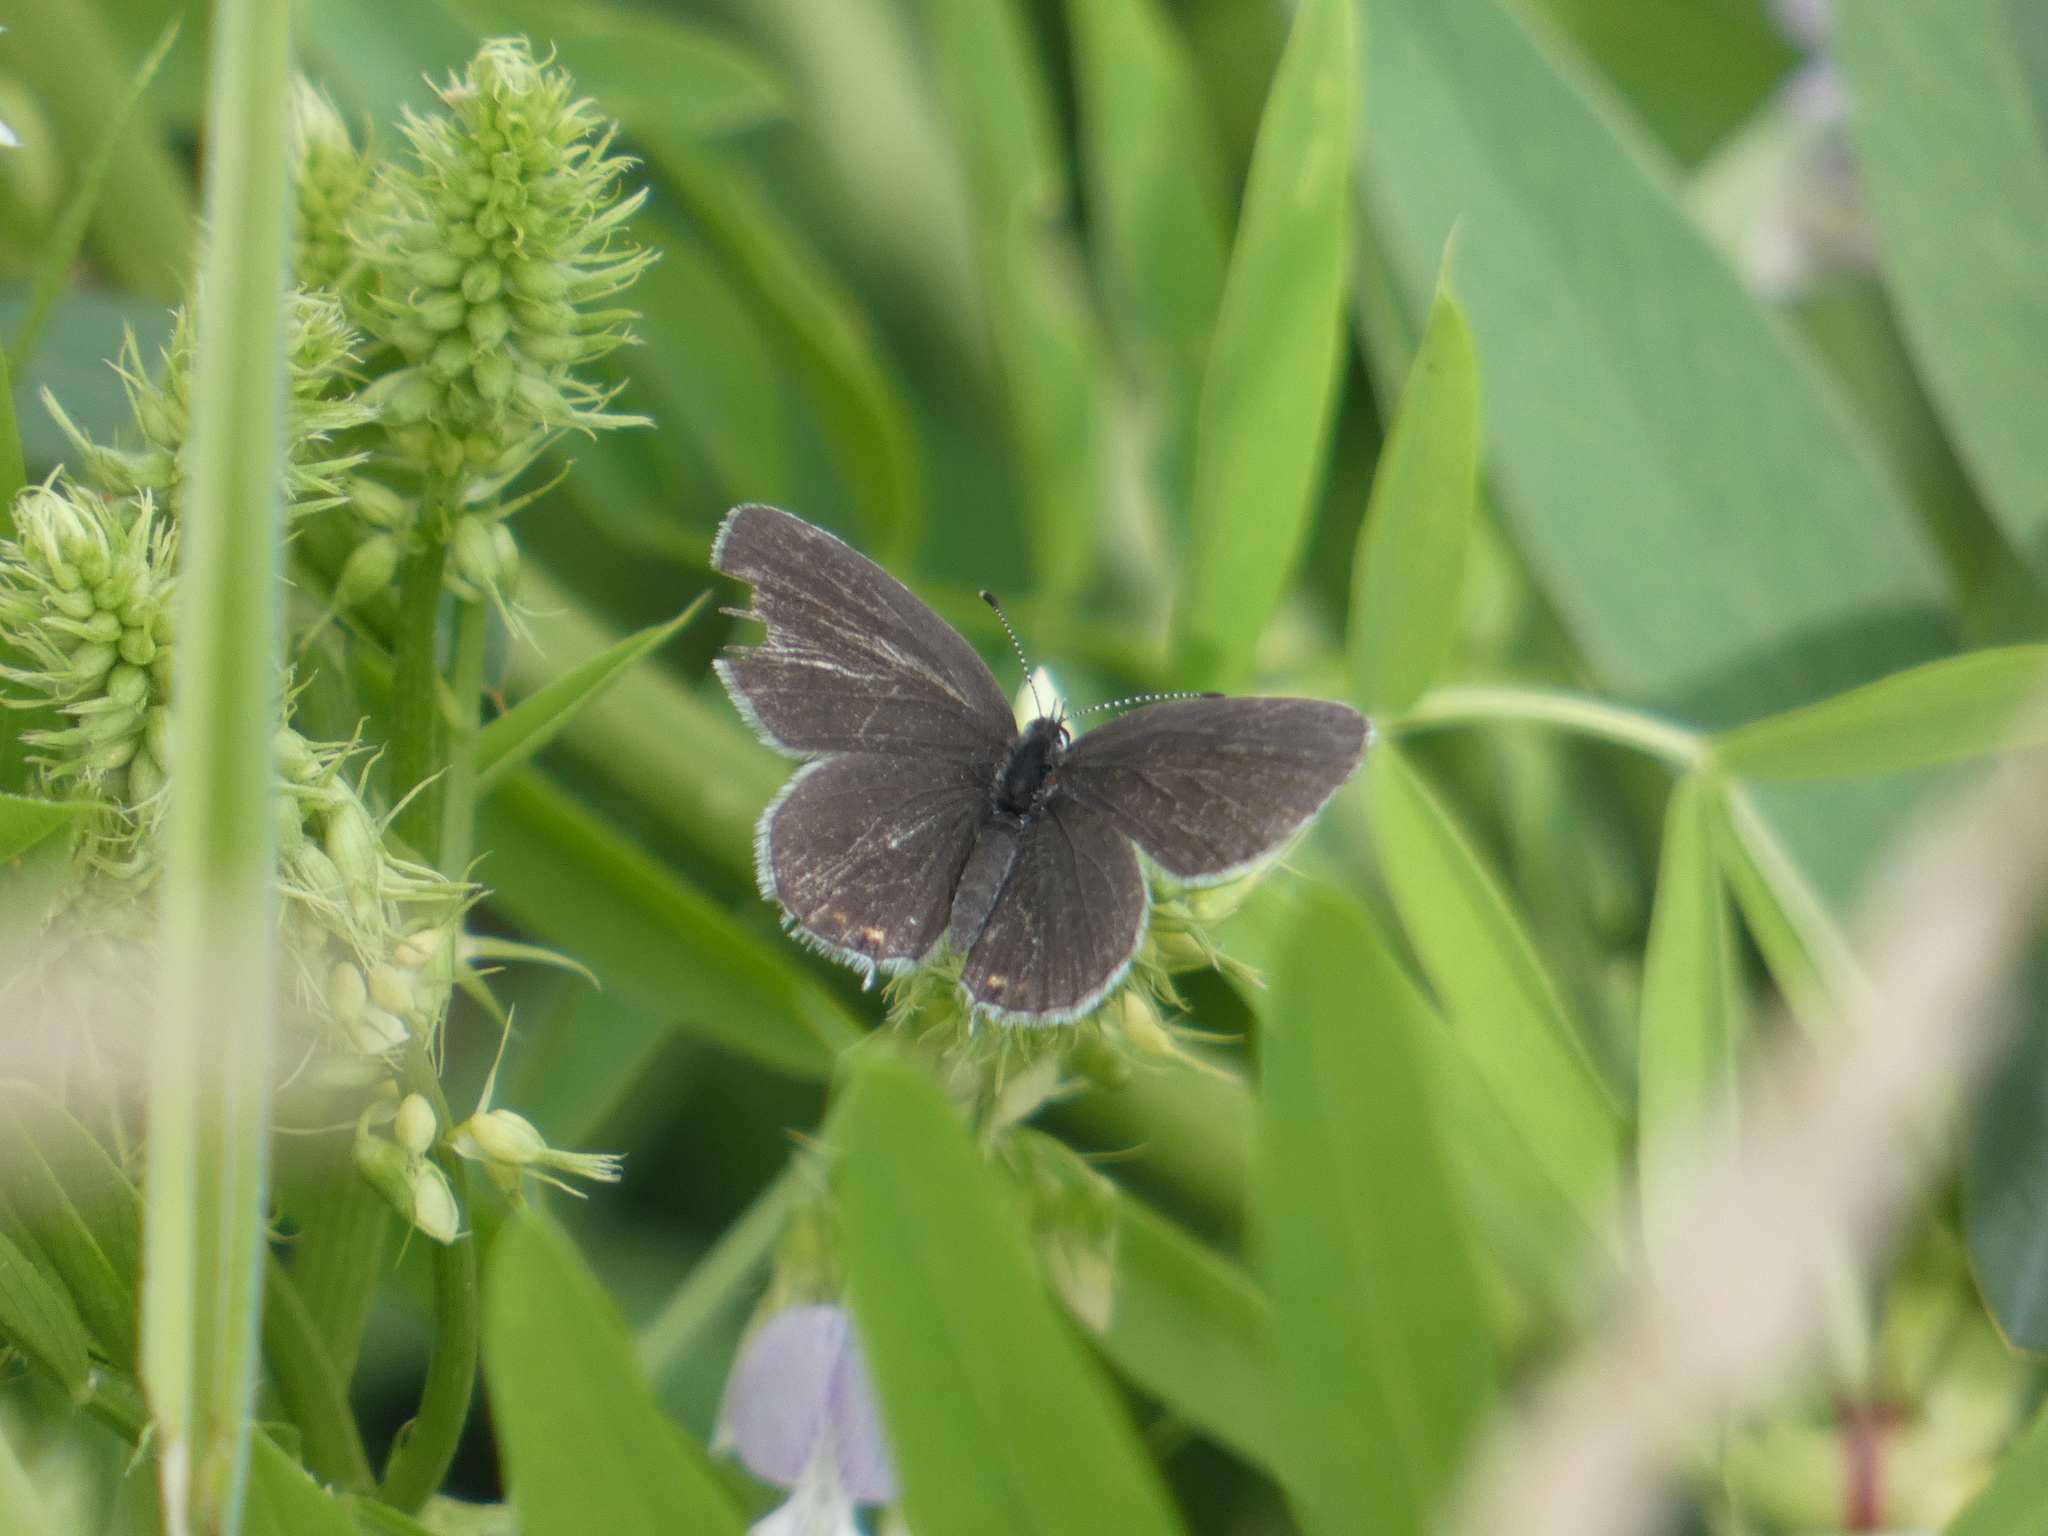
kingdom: Animalia
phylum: Arthropoda
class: Insecta
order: Lepidoptera
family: Lycaenidae
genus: Elkalyce
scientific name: Elkalyce argiades
